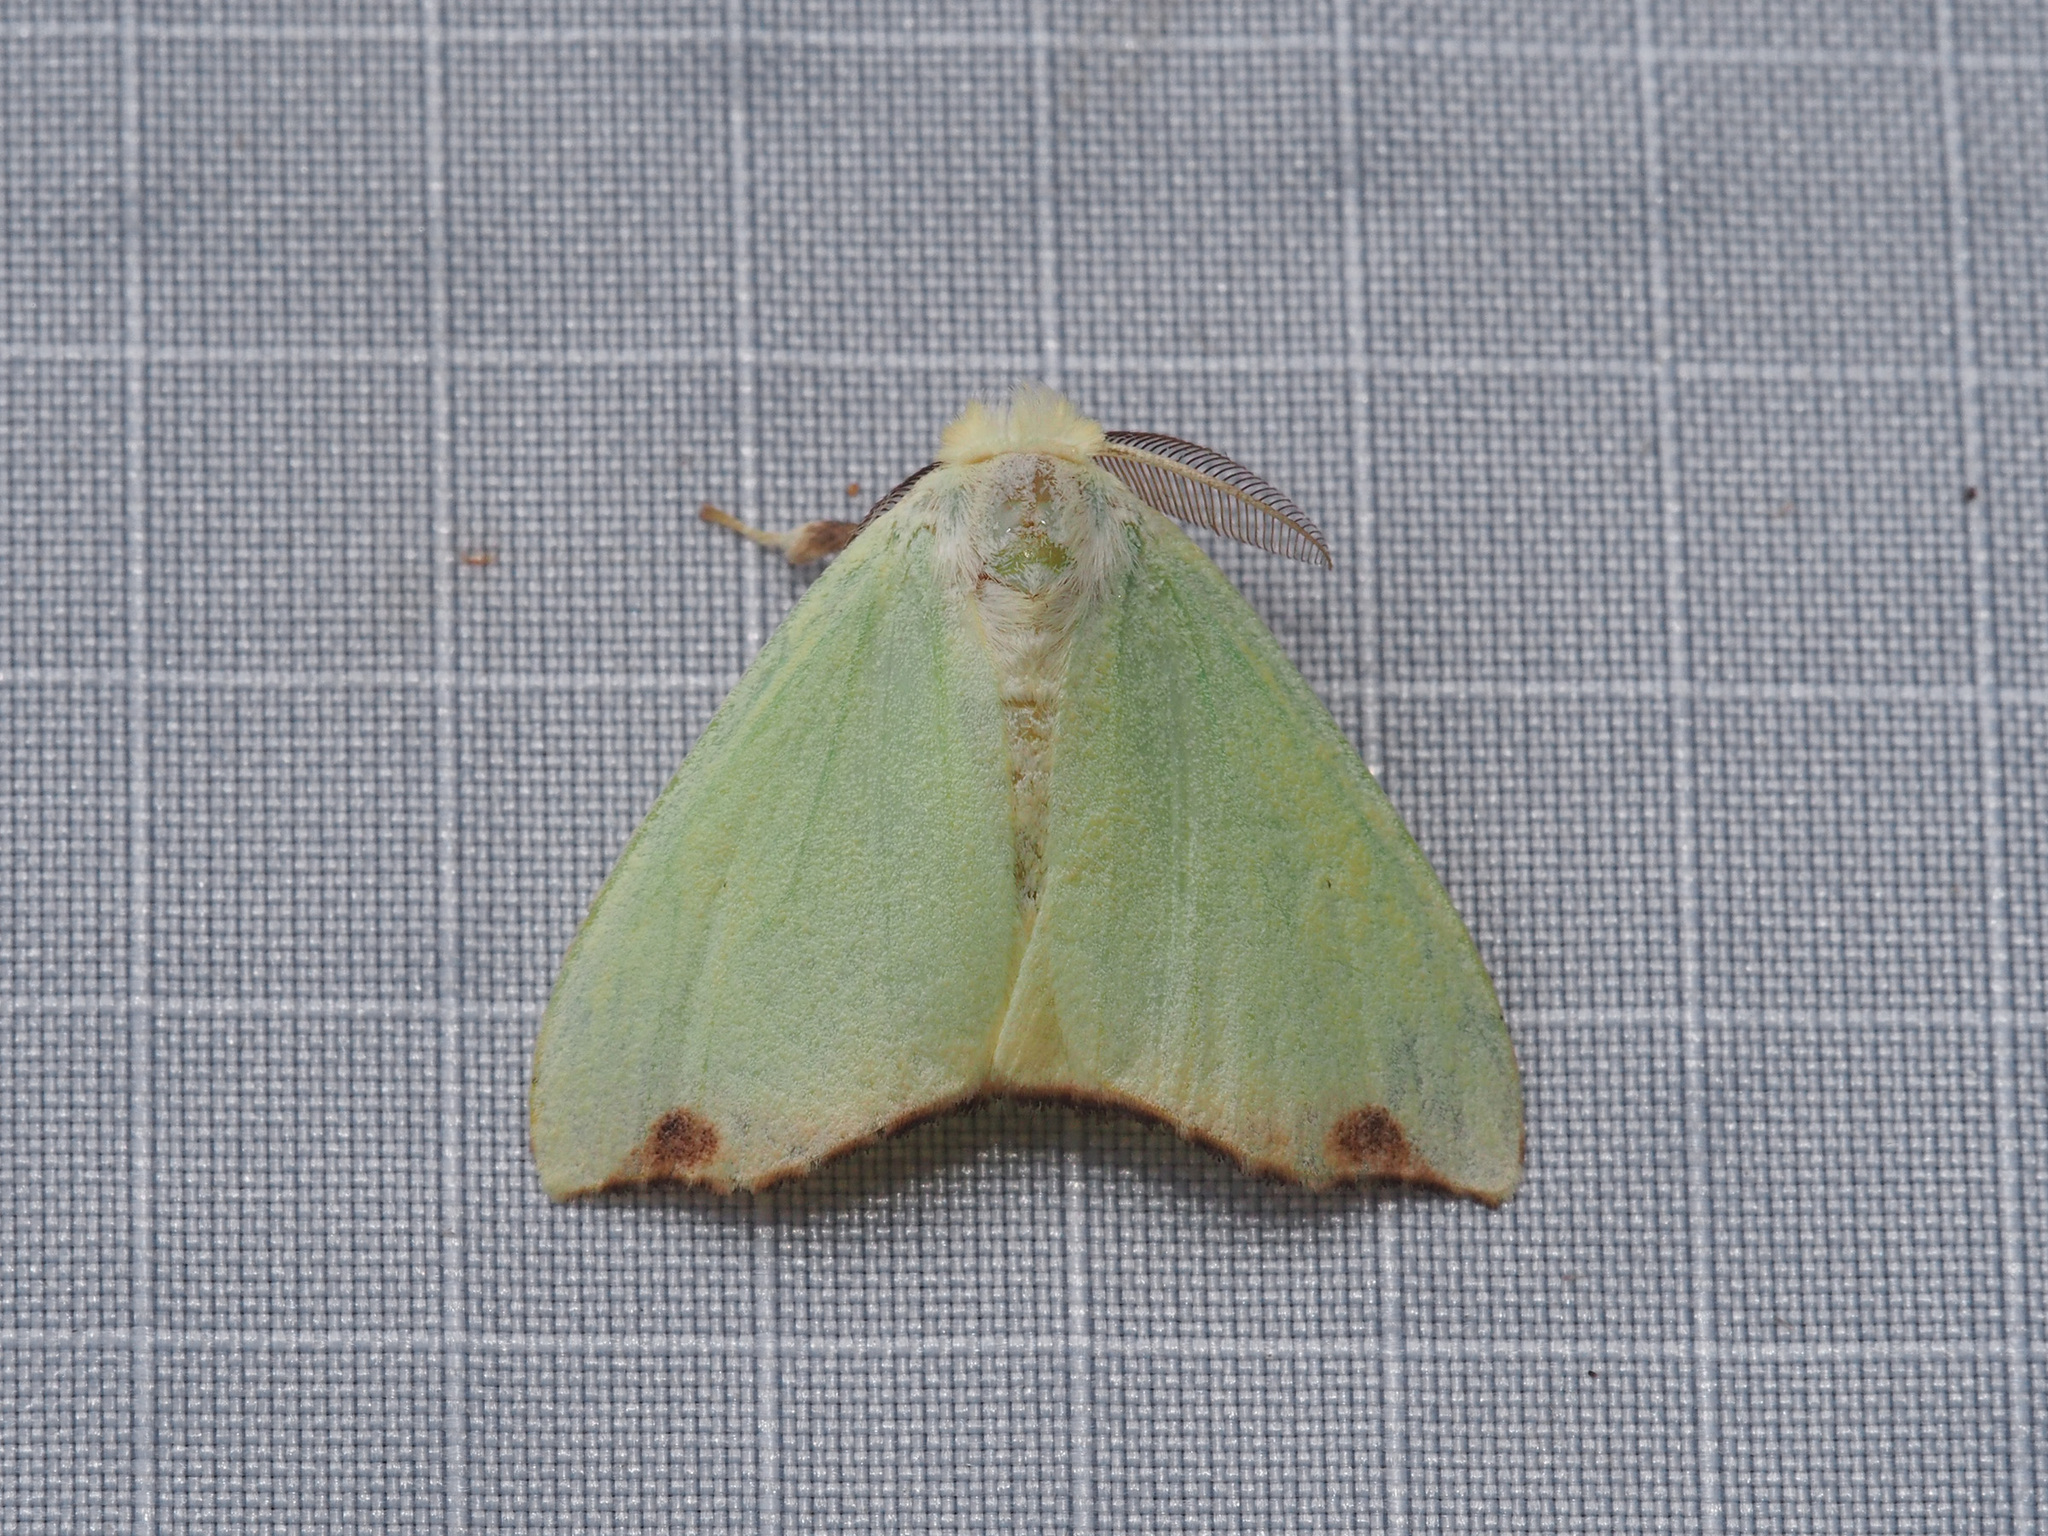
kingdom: Animalia
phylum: Arthropoda
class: Insecta
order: Lepidoptera
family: Erebidae
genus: Arctornis
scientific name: Arctornis rutila
